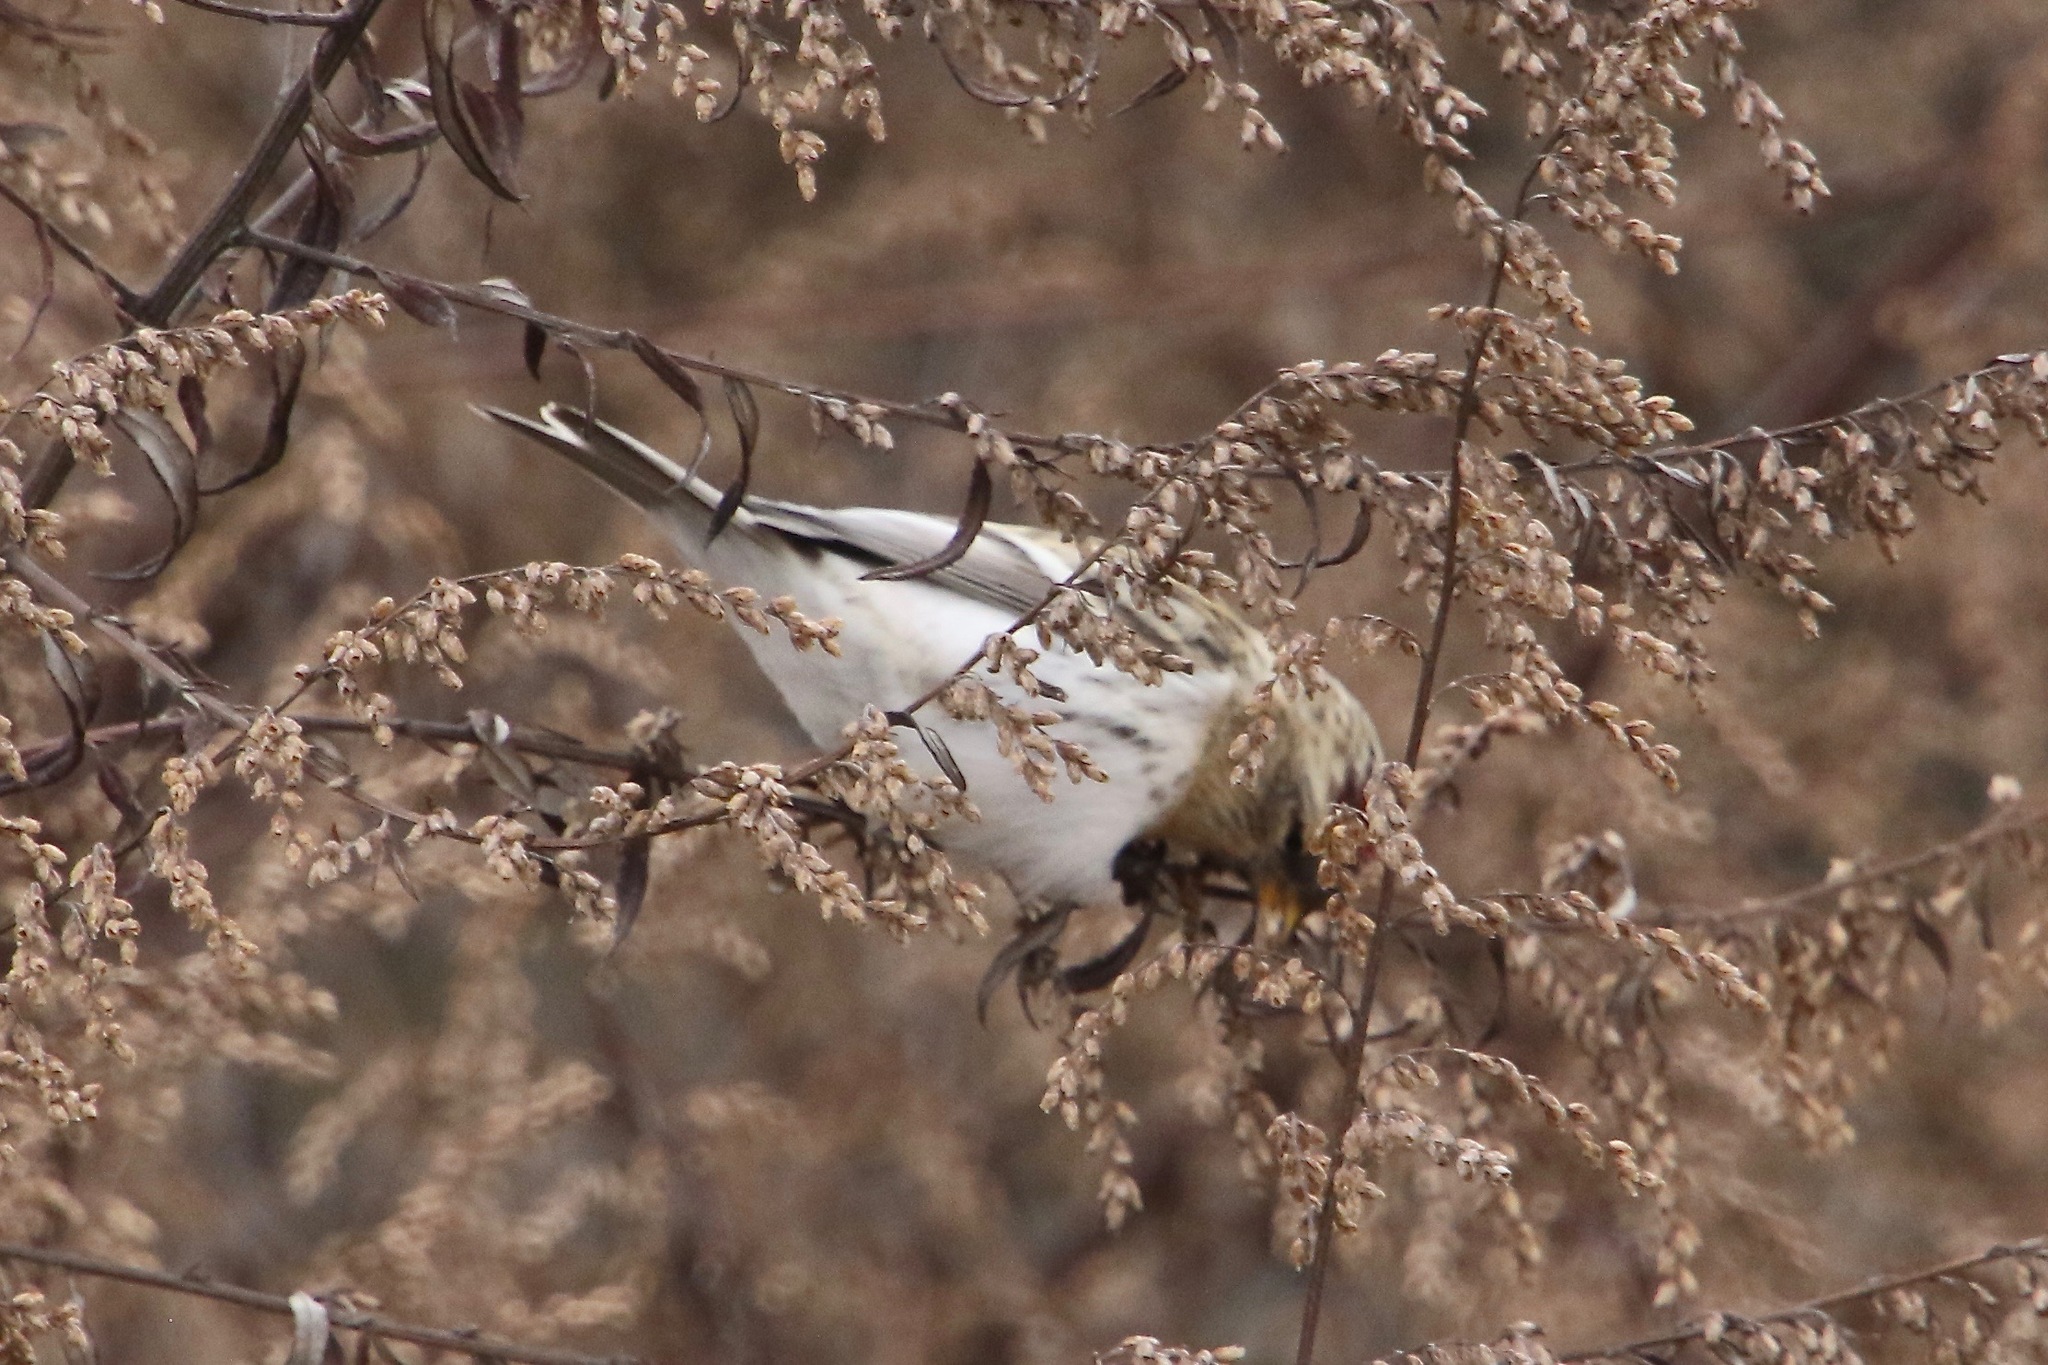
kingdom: Animalia
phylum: Chordata
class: Aves
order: Passeriformes
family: Fringillidae
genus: Acanthis
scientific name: Acanthis hornemanni
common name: Arctic redpoll
